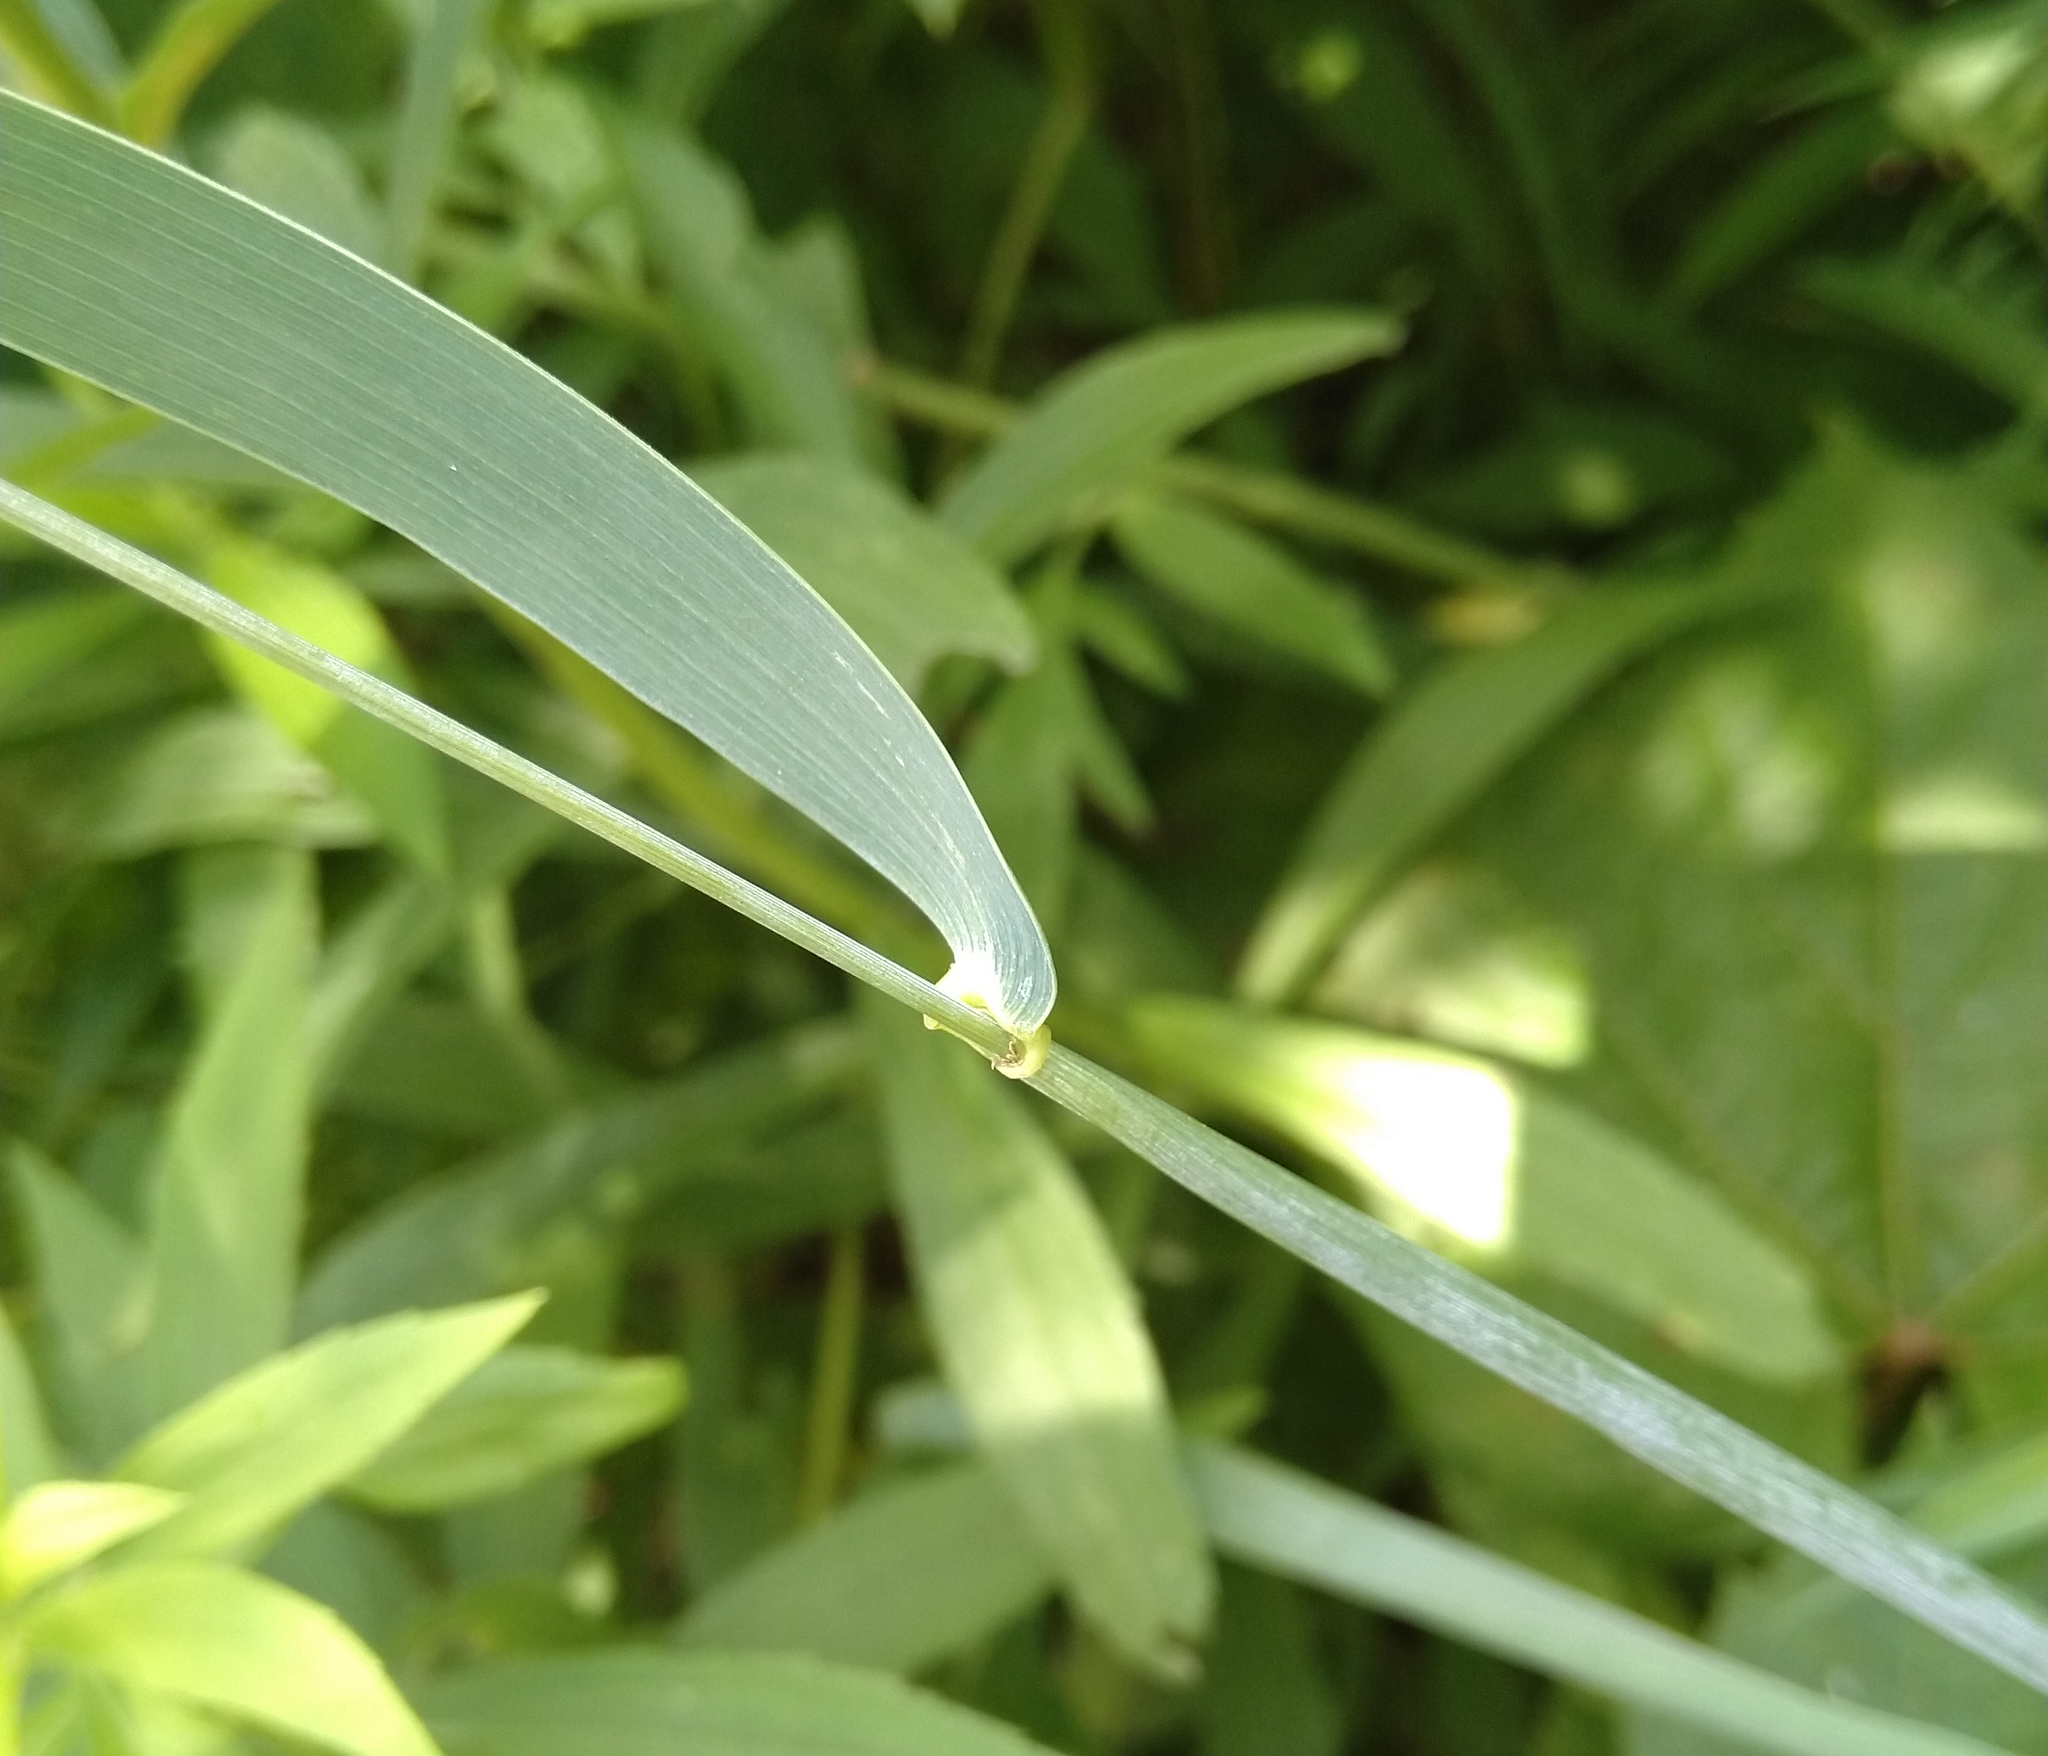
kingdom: Plantae
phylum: Tracheophyta
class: Liliopsida
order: Poales
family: Poaceae
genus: Elymus
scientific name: Elymus hystrix
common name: Bottlebrush grass
